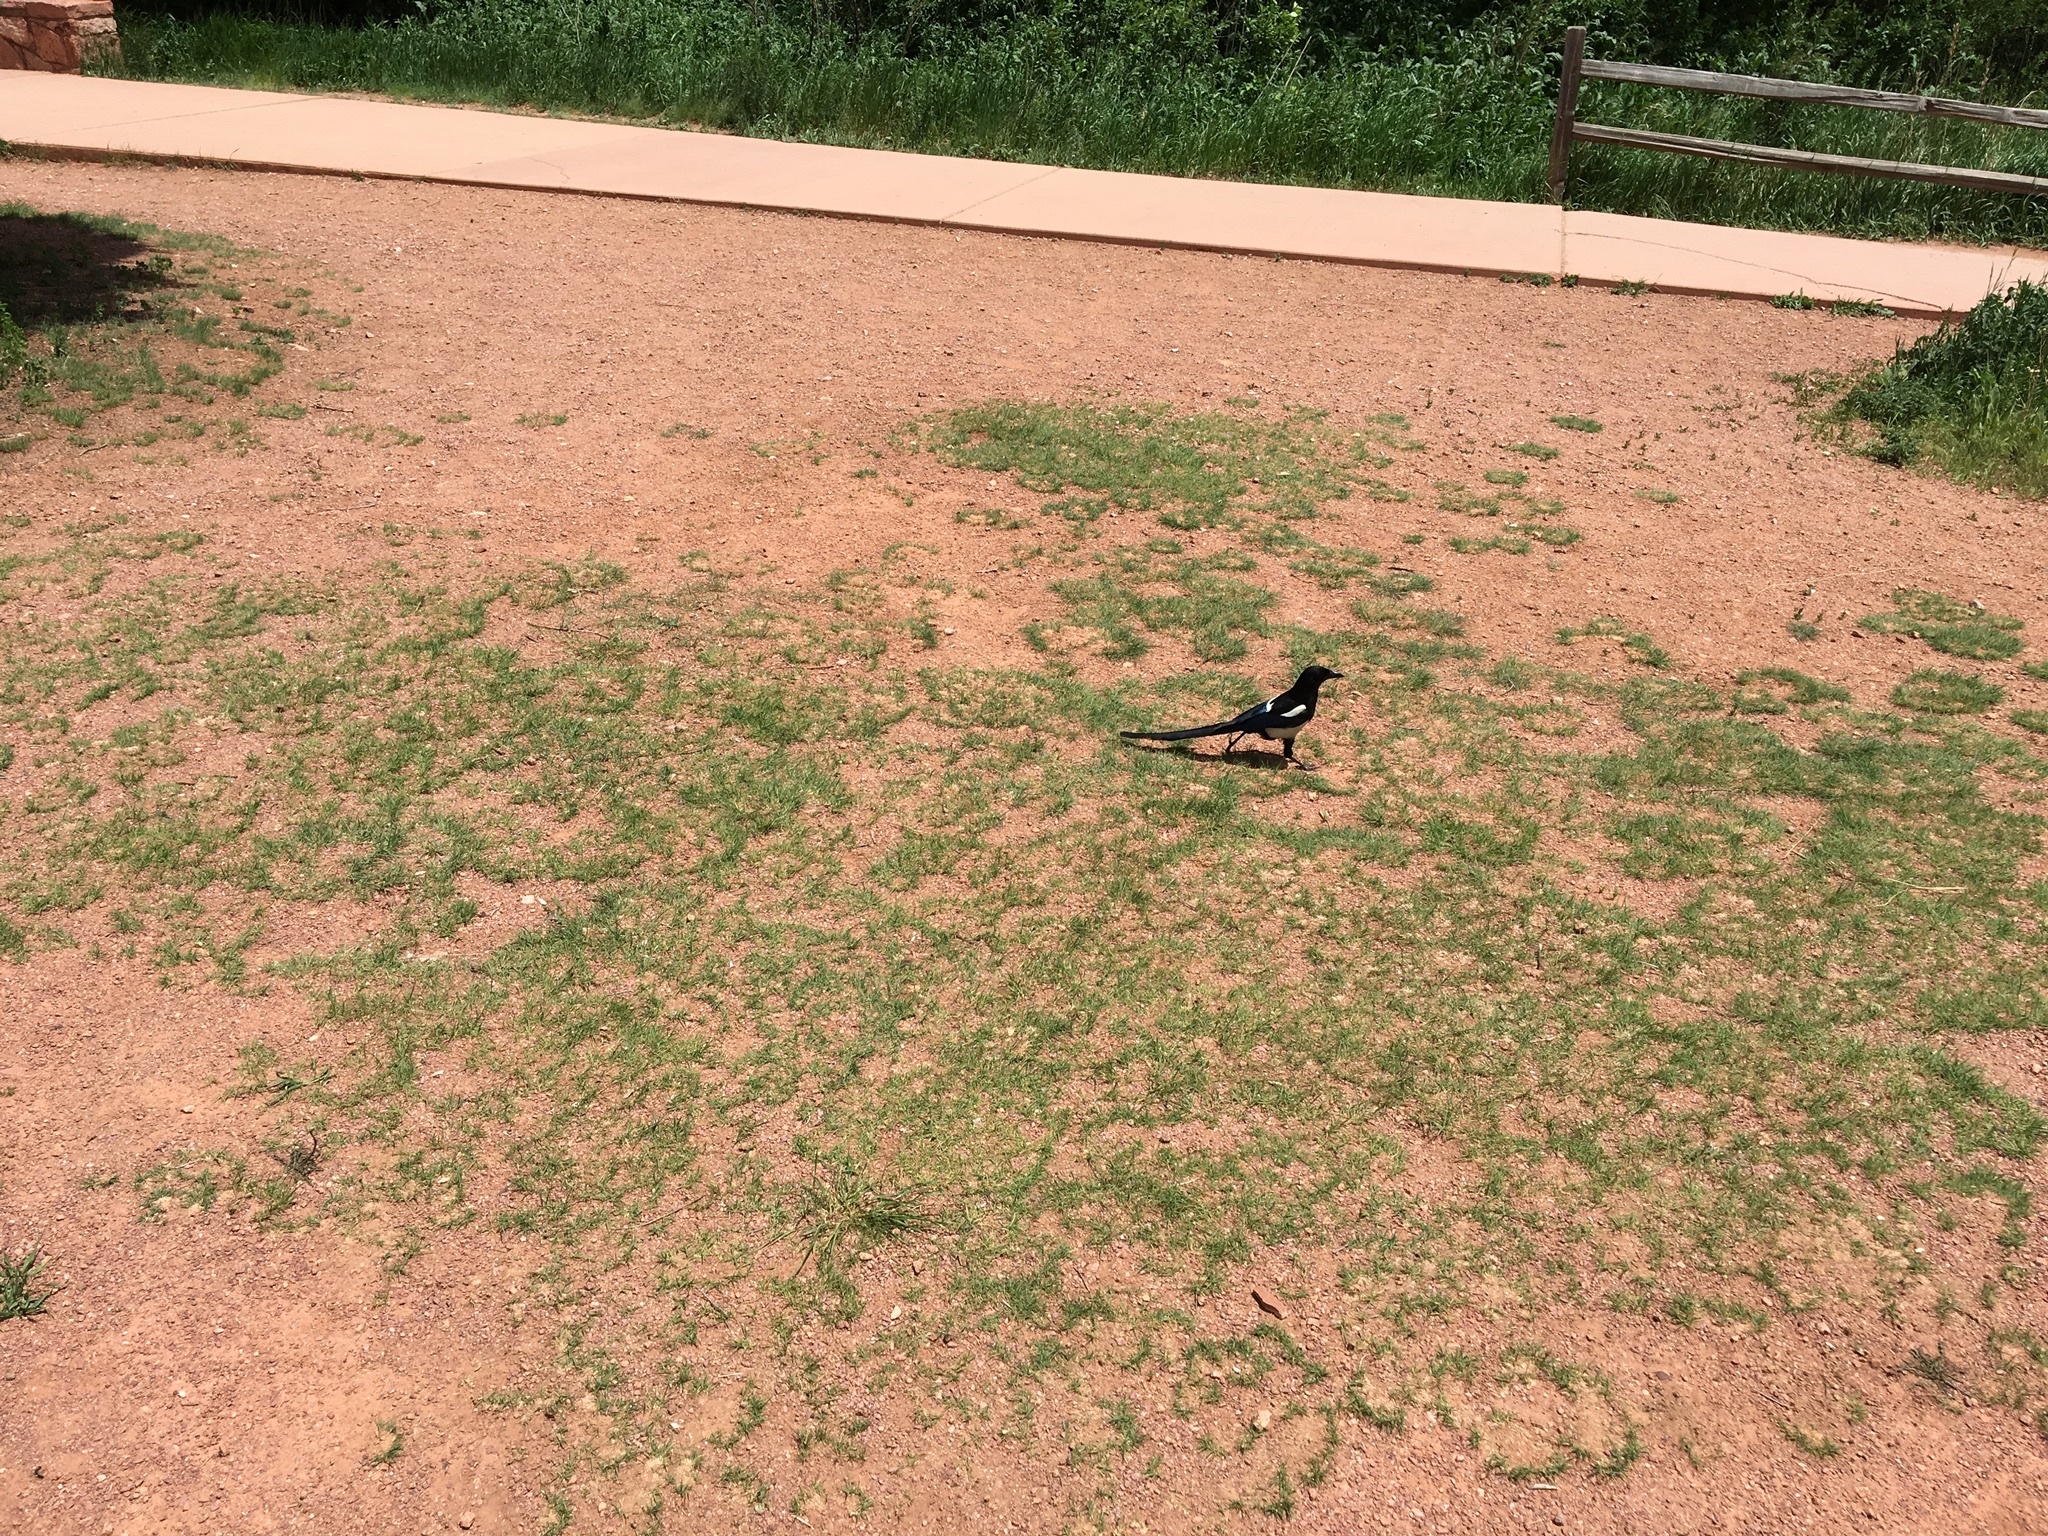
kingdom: Animalia
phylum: Chordata
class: Aves
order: Passeriformes
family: Corvidae
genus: Pica
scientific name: Pica hudsonia
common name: Black-billed magpie
